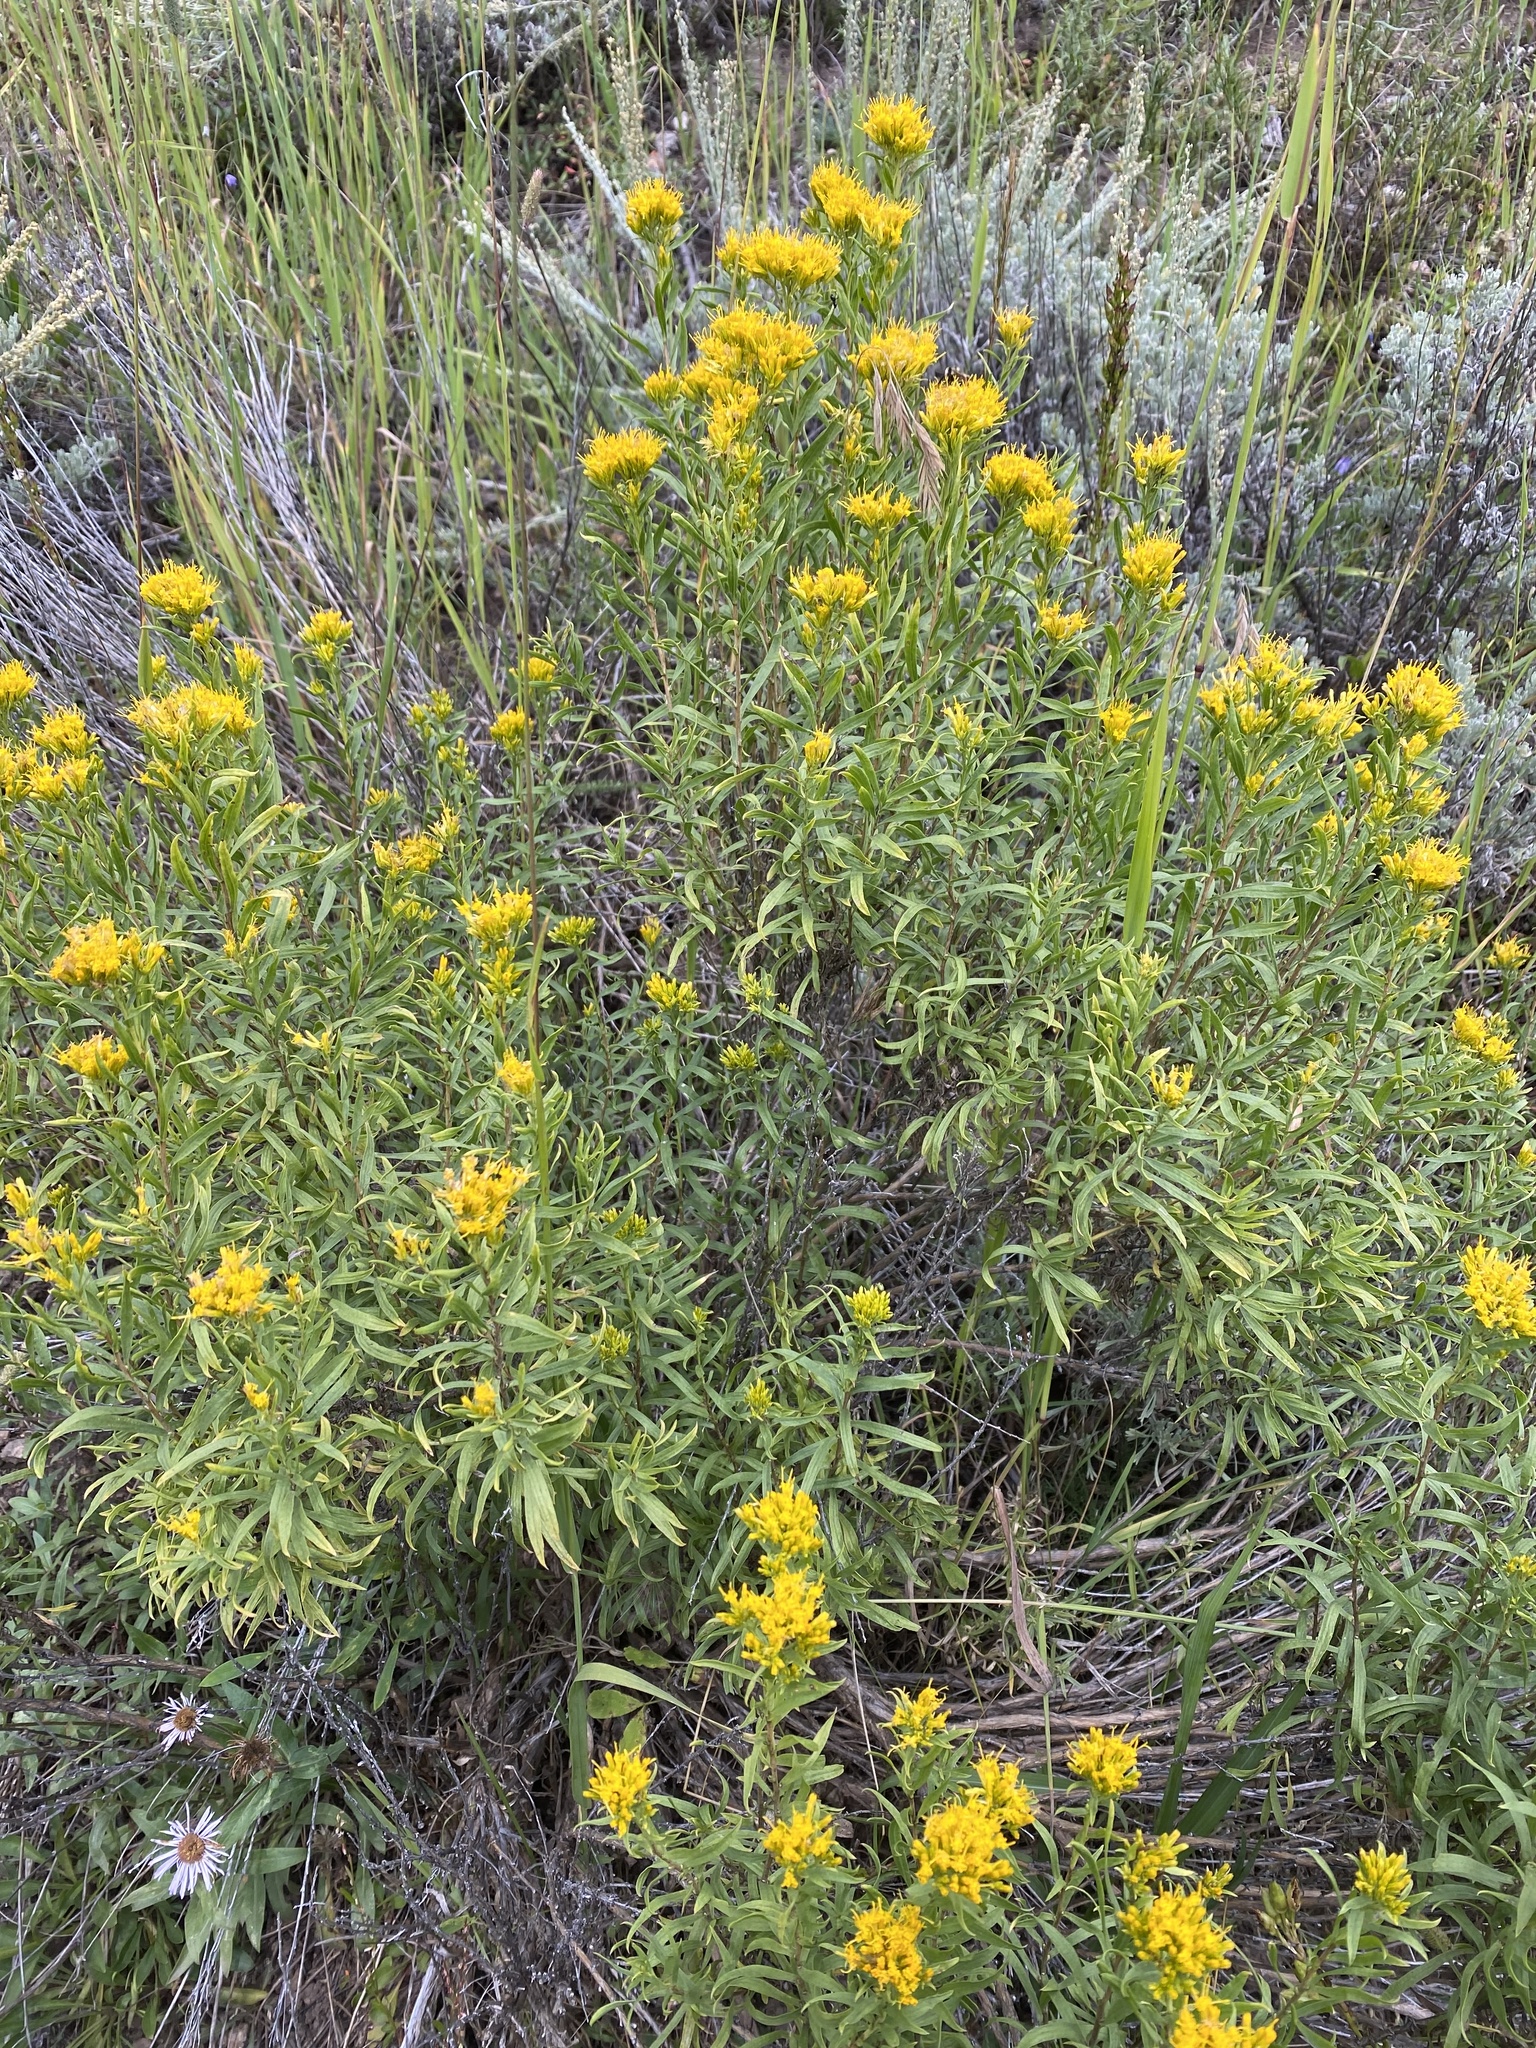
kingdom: Plantae
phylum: Tracheophyta
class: Magnoliopsida
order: Asterales
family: Asteraceae
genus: Chrysothamnus
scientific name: Chrysothamnus viscidiflorus
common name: Yellow rabbitbrush
